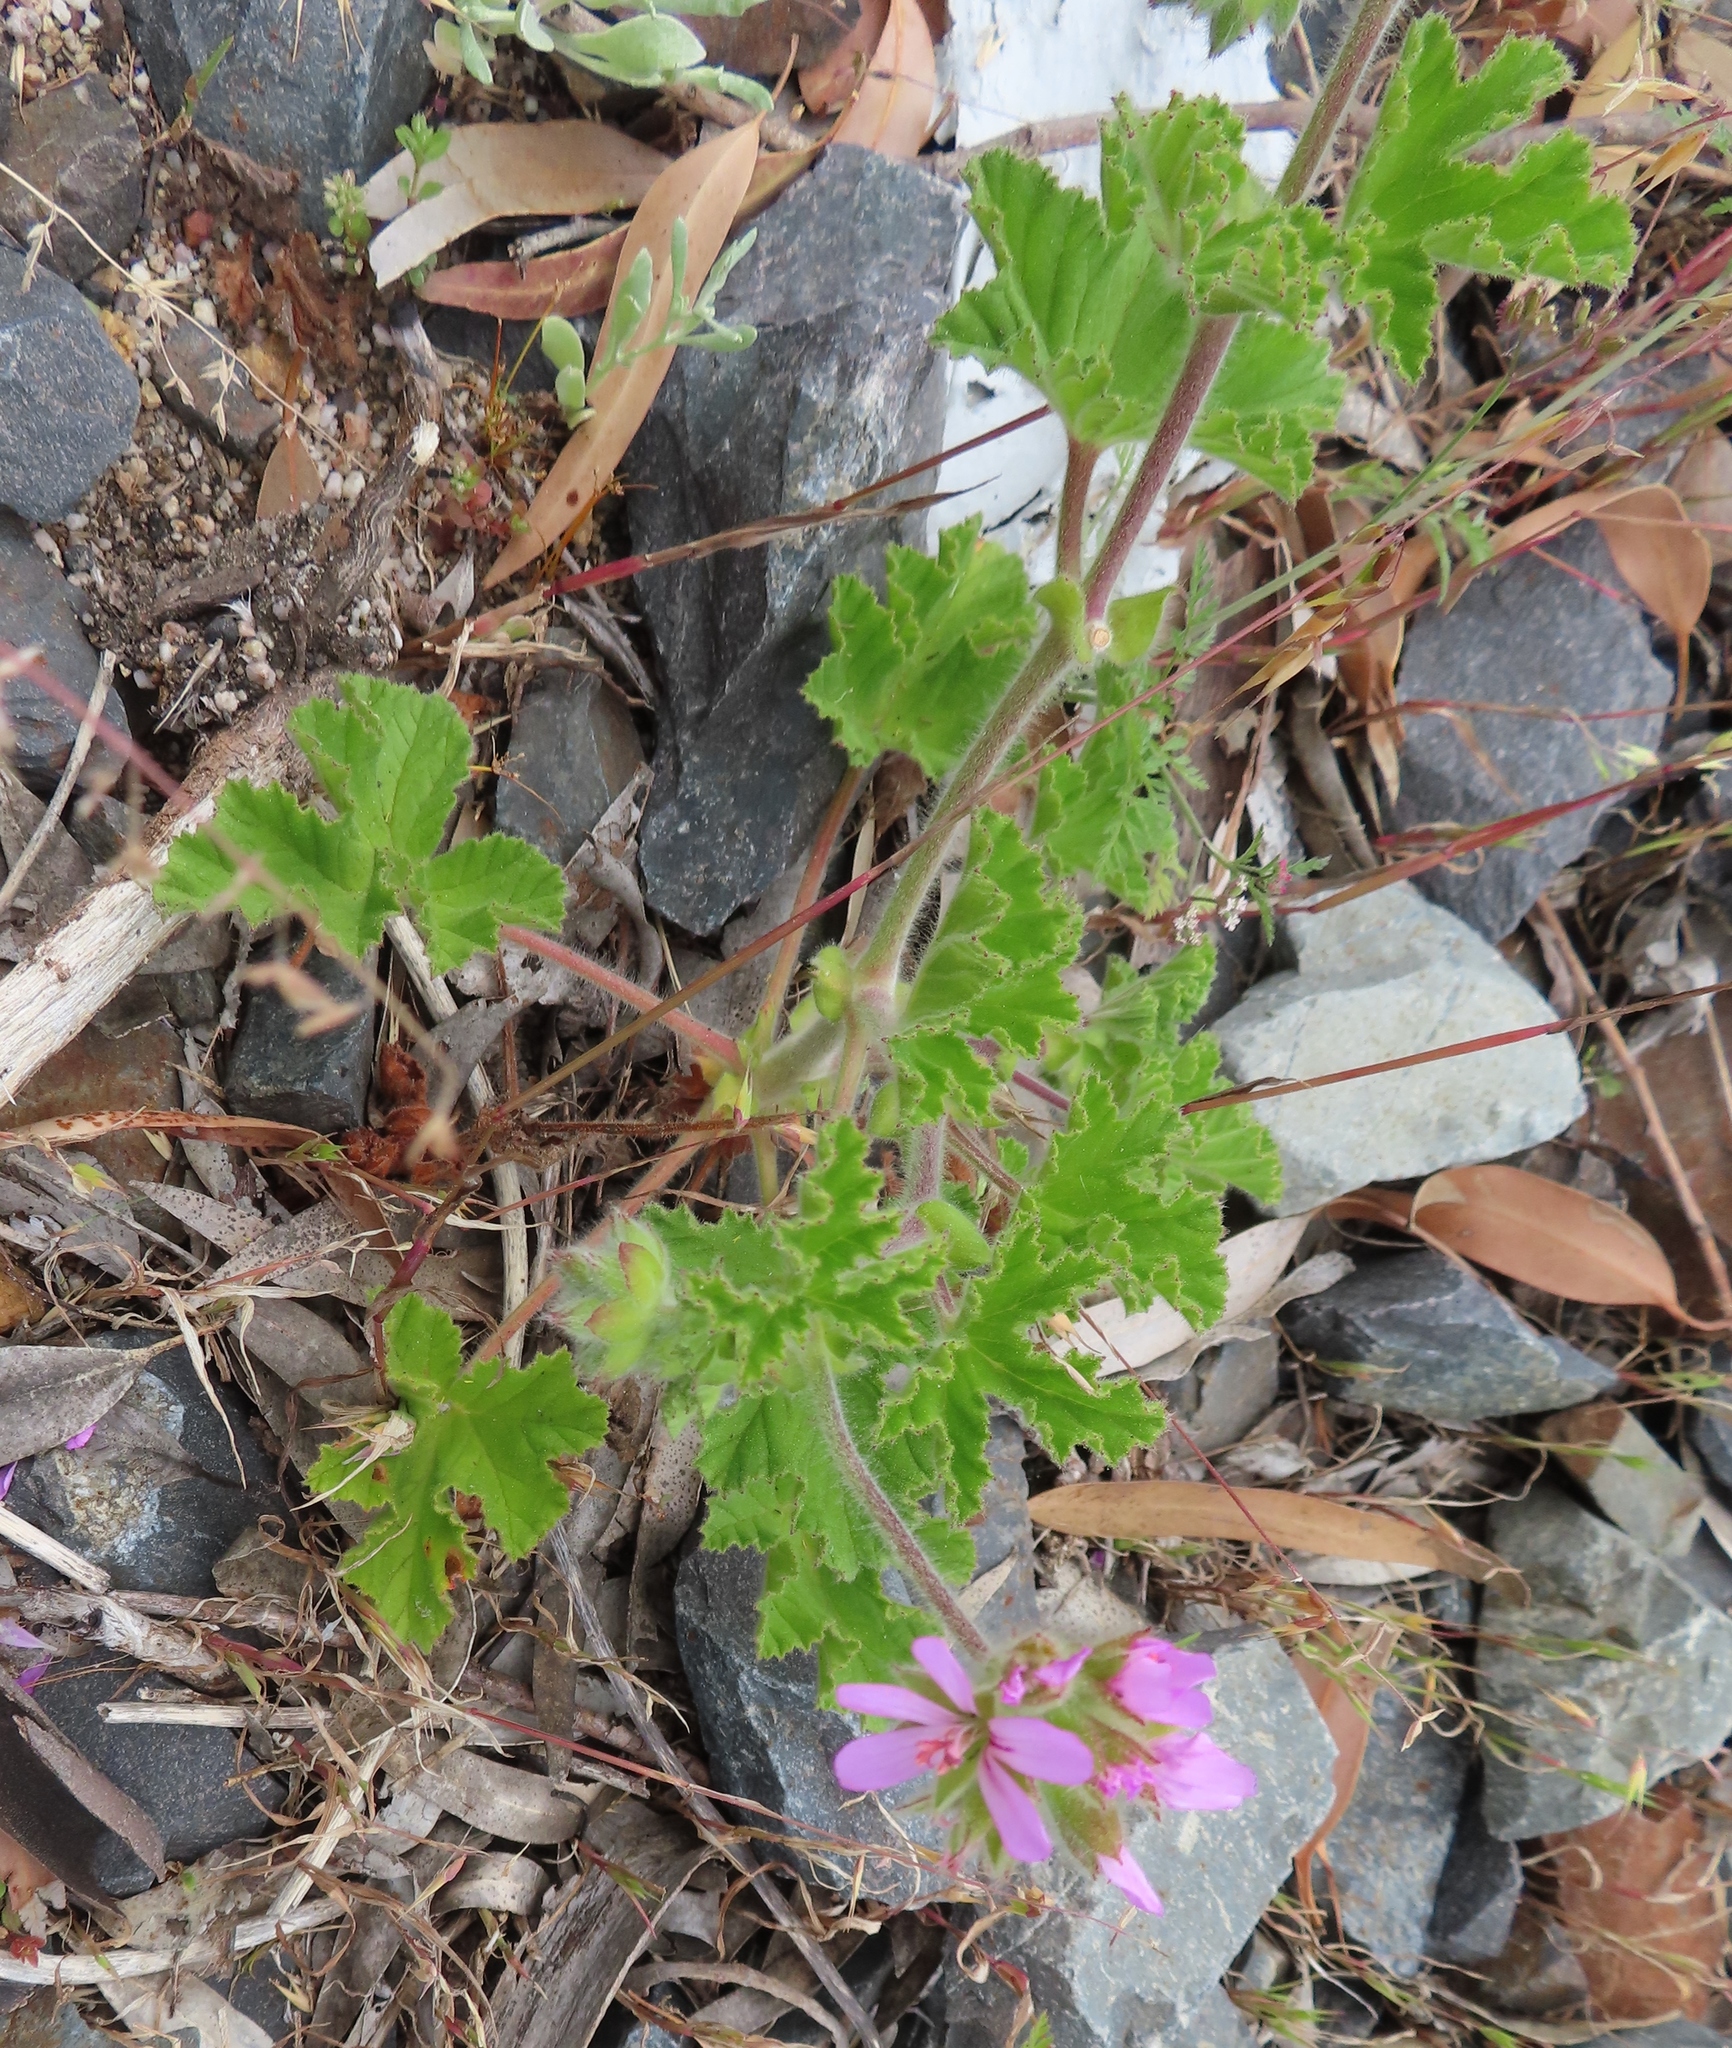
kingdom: Plantae
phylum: Tracheophyta
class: Magnoliopsida
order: Geraniales
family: Geraniaceae
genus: Pelargonium
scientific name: Pelargonium capitatum
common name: Rose scented geranium
